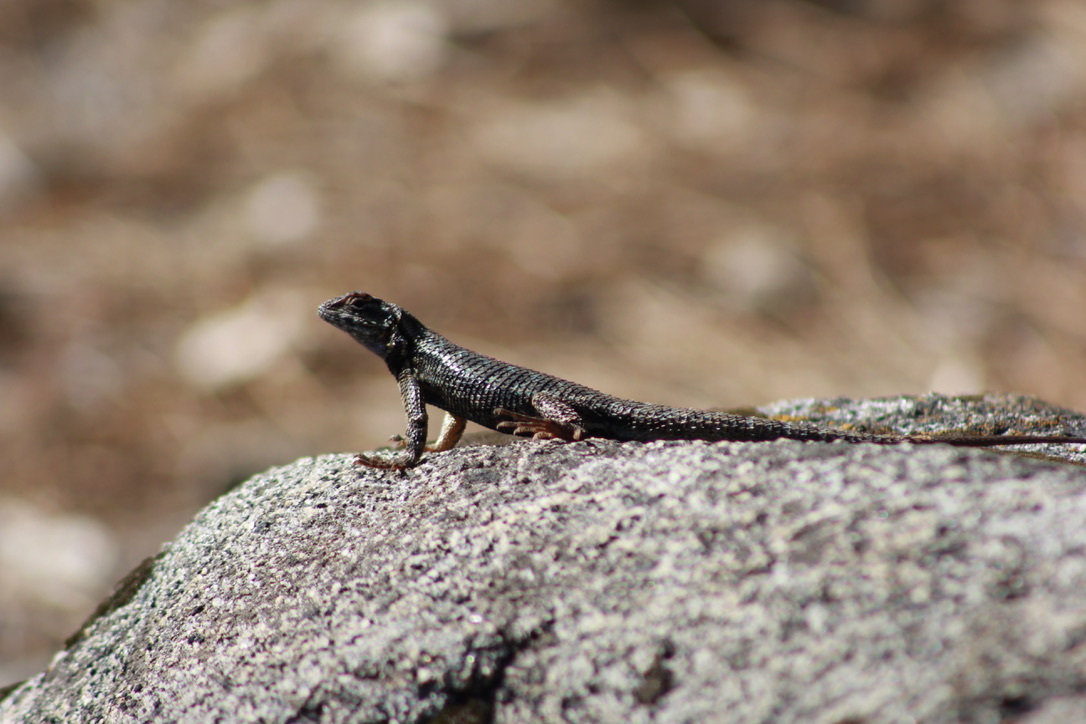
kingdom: Animalia
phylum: Chordata
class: Squamata
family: Phrynosomatidae
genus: Sceloporus
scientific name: Sceloporus occidentalis
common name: Western fence lizard
